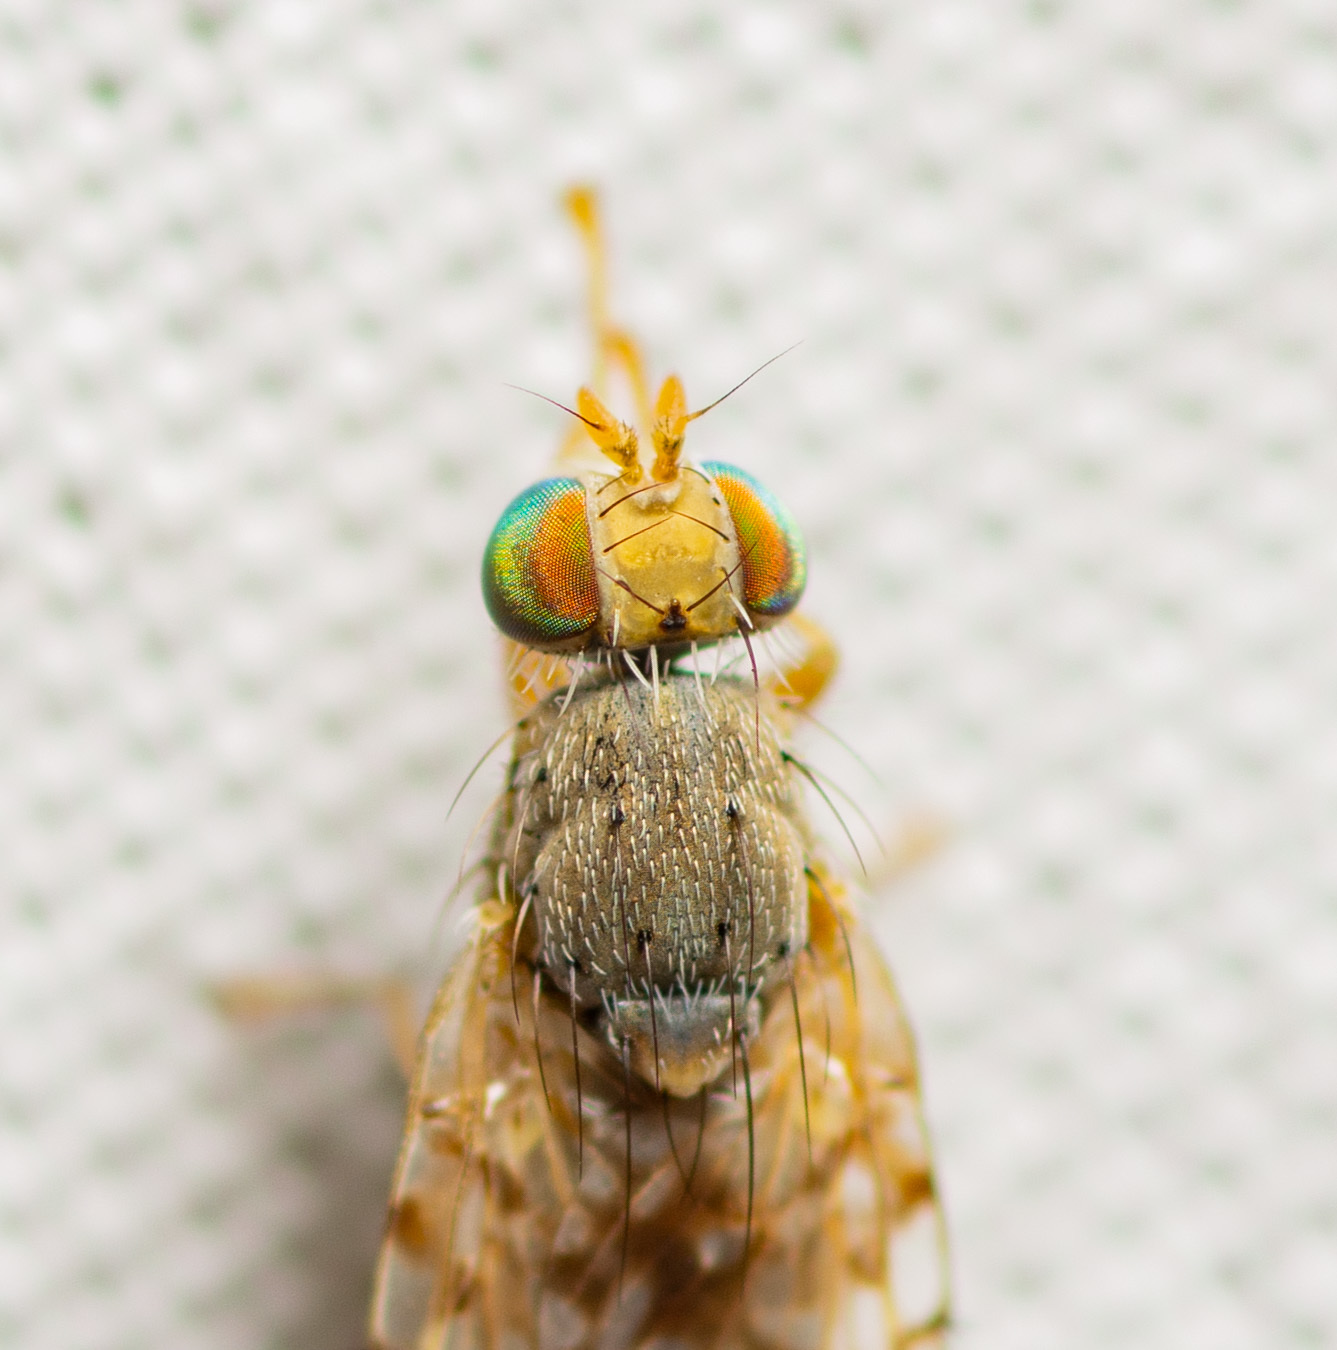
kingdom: Animalia
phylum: Arthropoda
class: Insecta
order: Diptera
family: Tephritidae
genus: Euaresta
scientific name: Euaresta bella
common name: Common ragweed fruit fly
